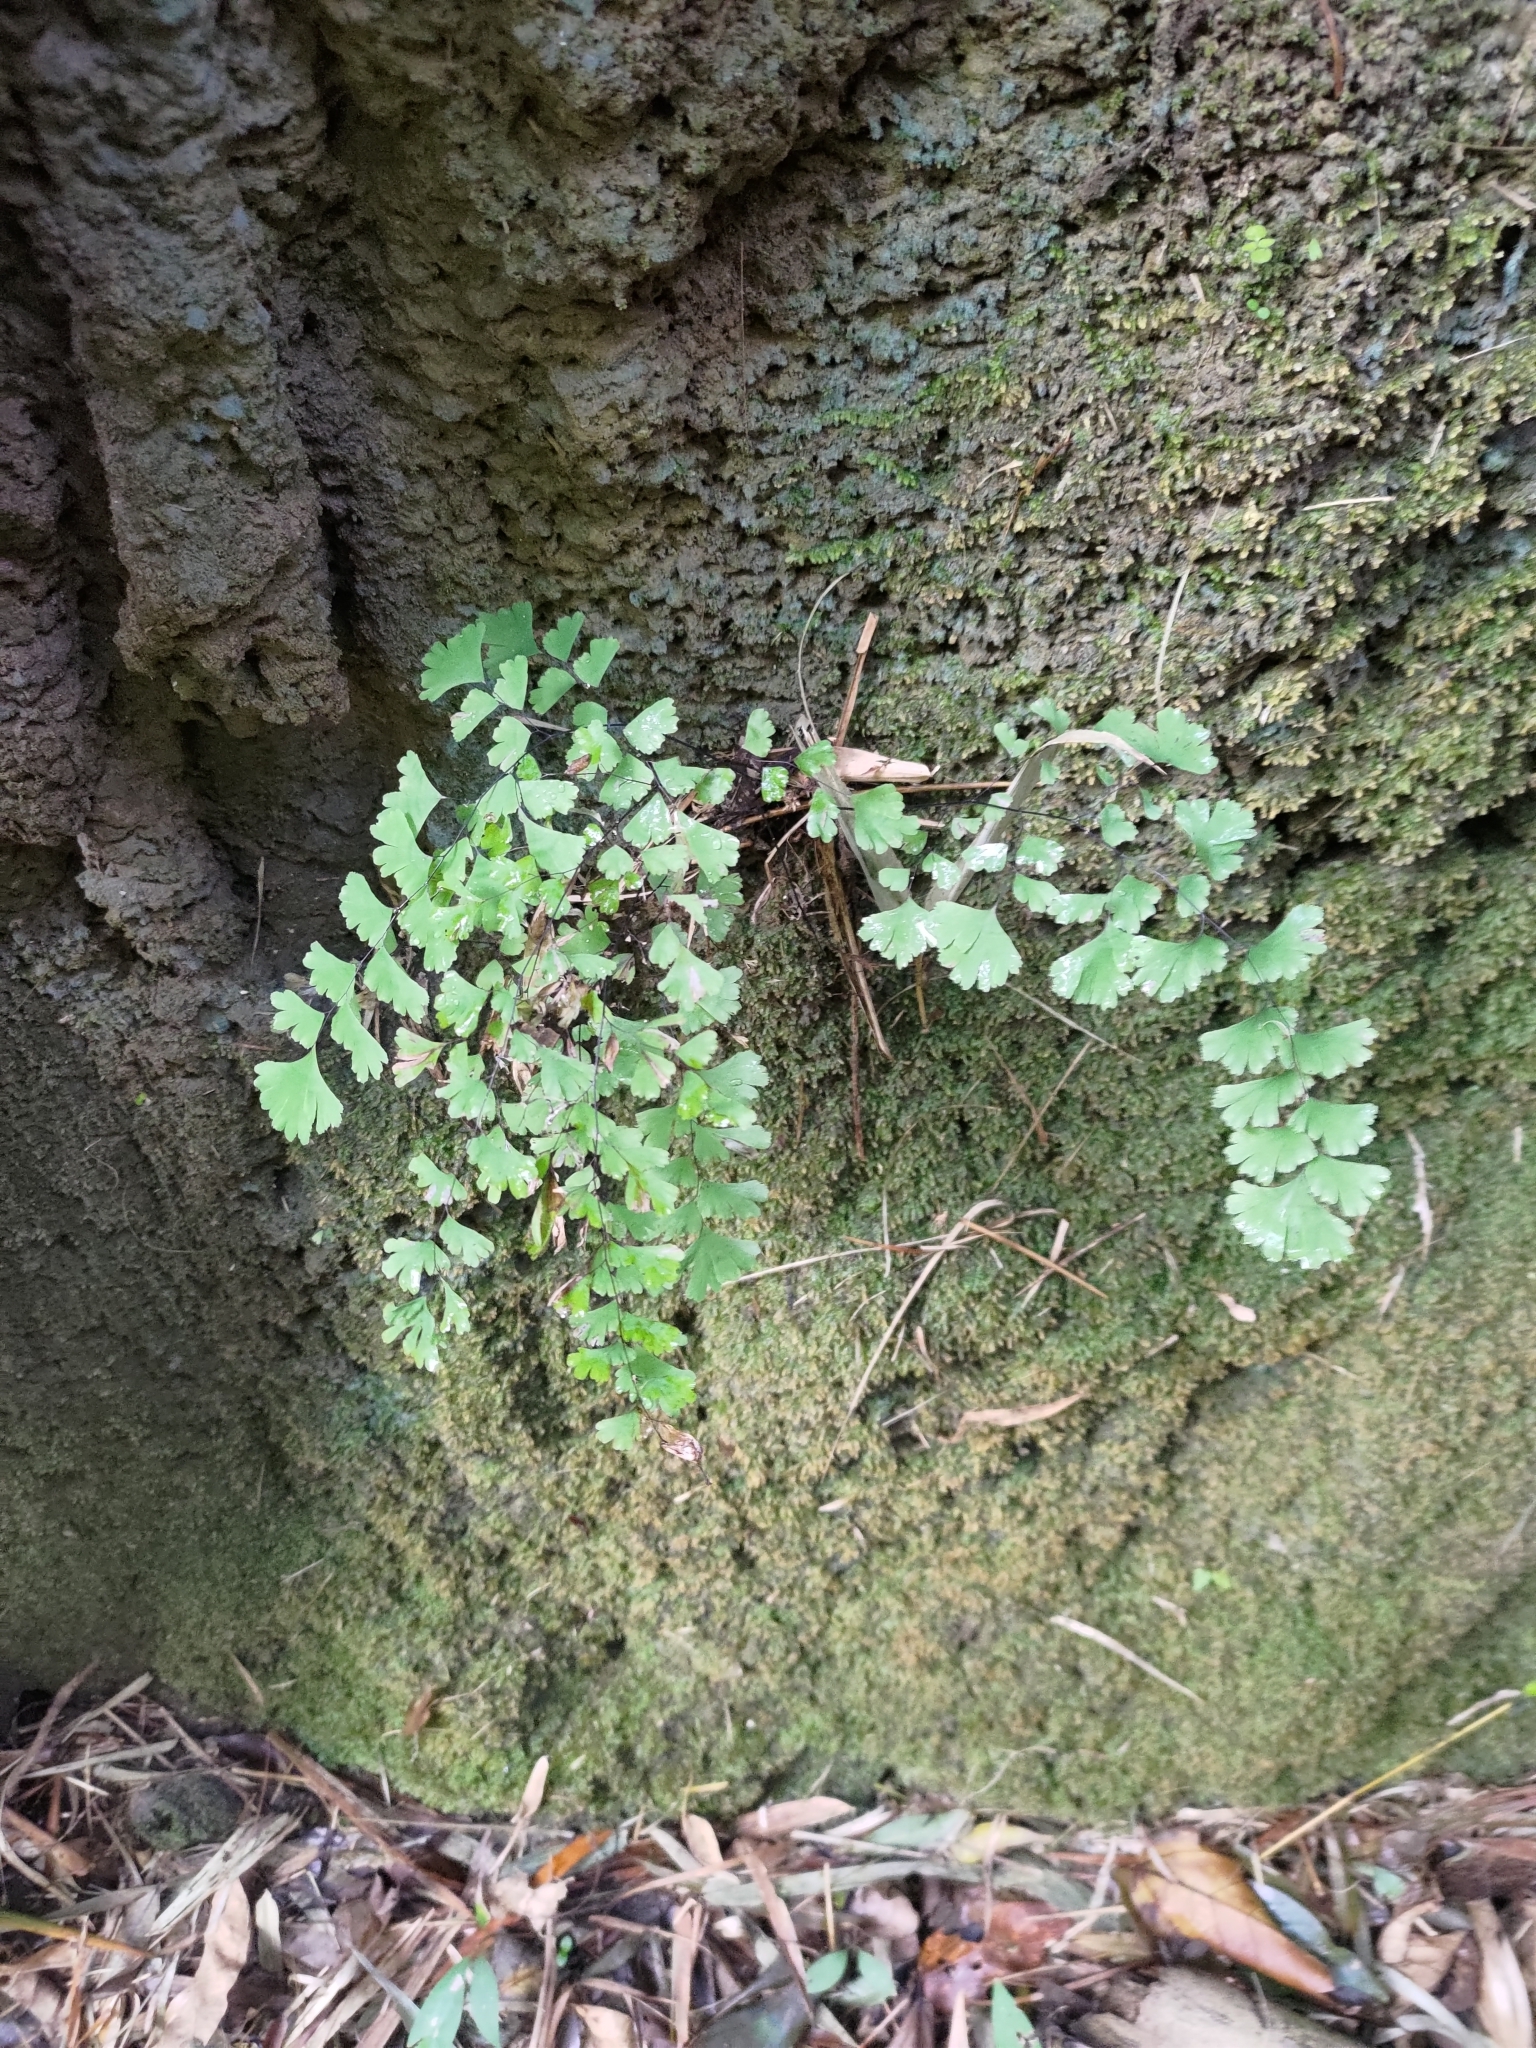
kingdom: Plantae
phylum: Tracheophyta
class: Polypodiopsida
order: Polypodiales
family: Pteridaceae
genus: Adiantum
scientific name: Adiantum capillus-veneris
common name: Maidenhair fern
